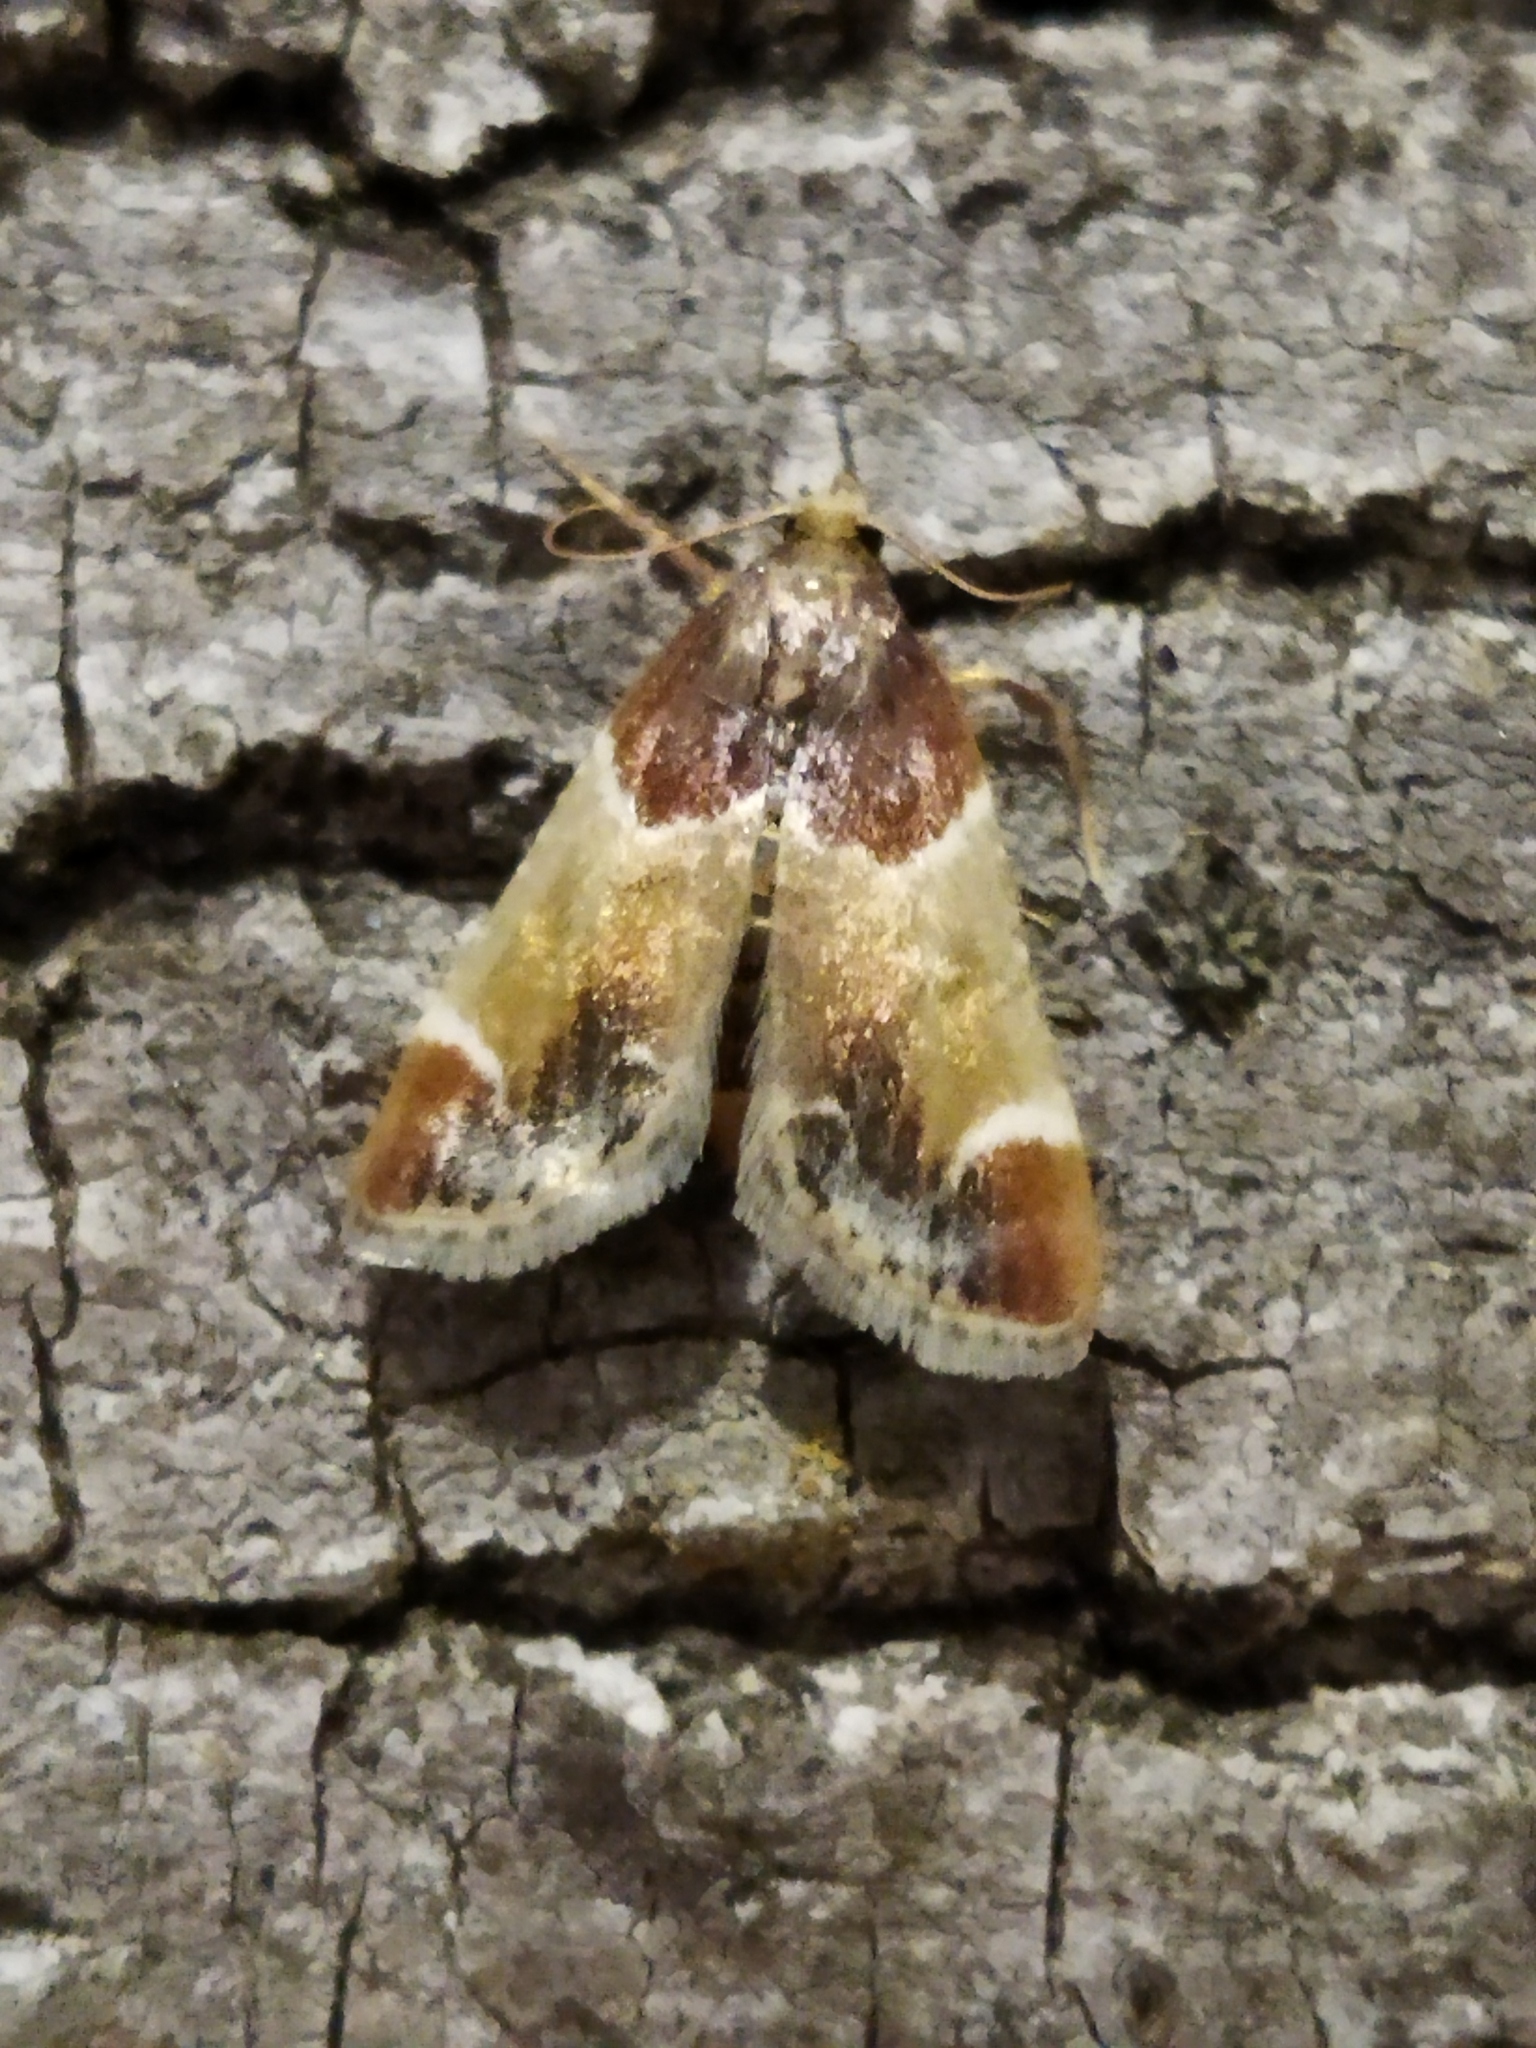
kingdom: Animalia
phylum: Arthropoda
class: Insecta
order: Lepidoptera
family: Pyralidae
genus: Pyralis
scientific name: Pyralis farinalis
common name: Meal moth
